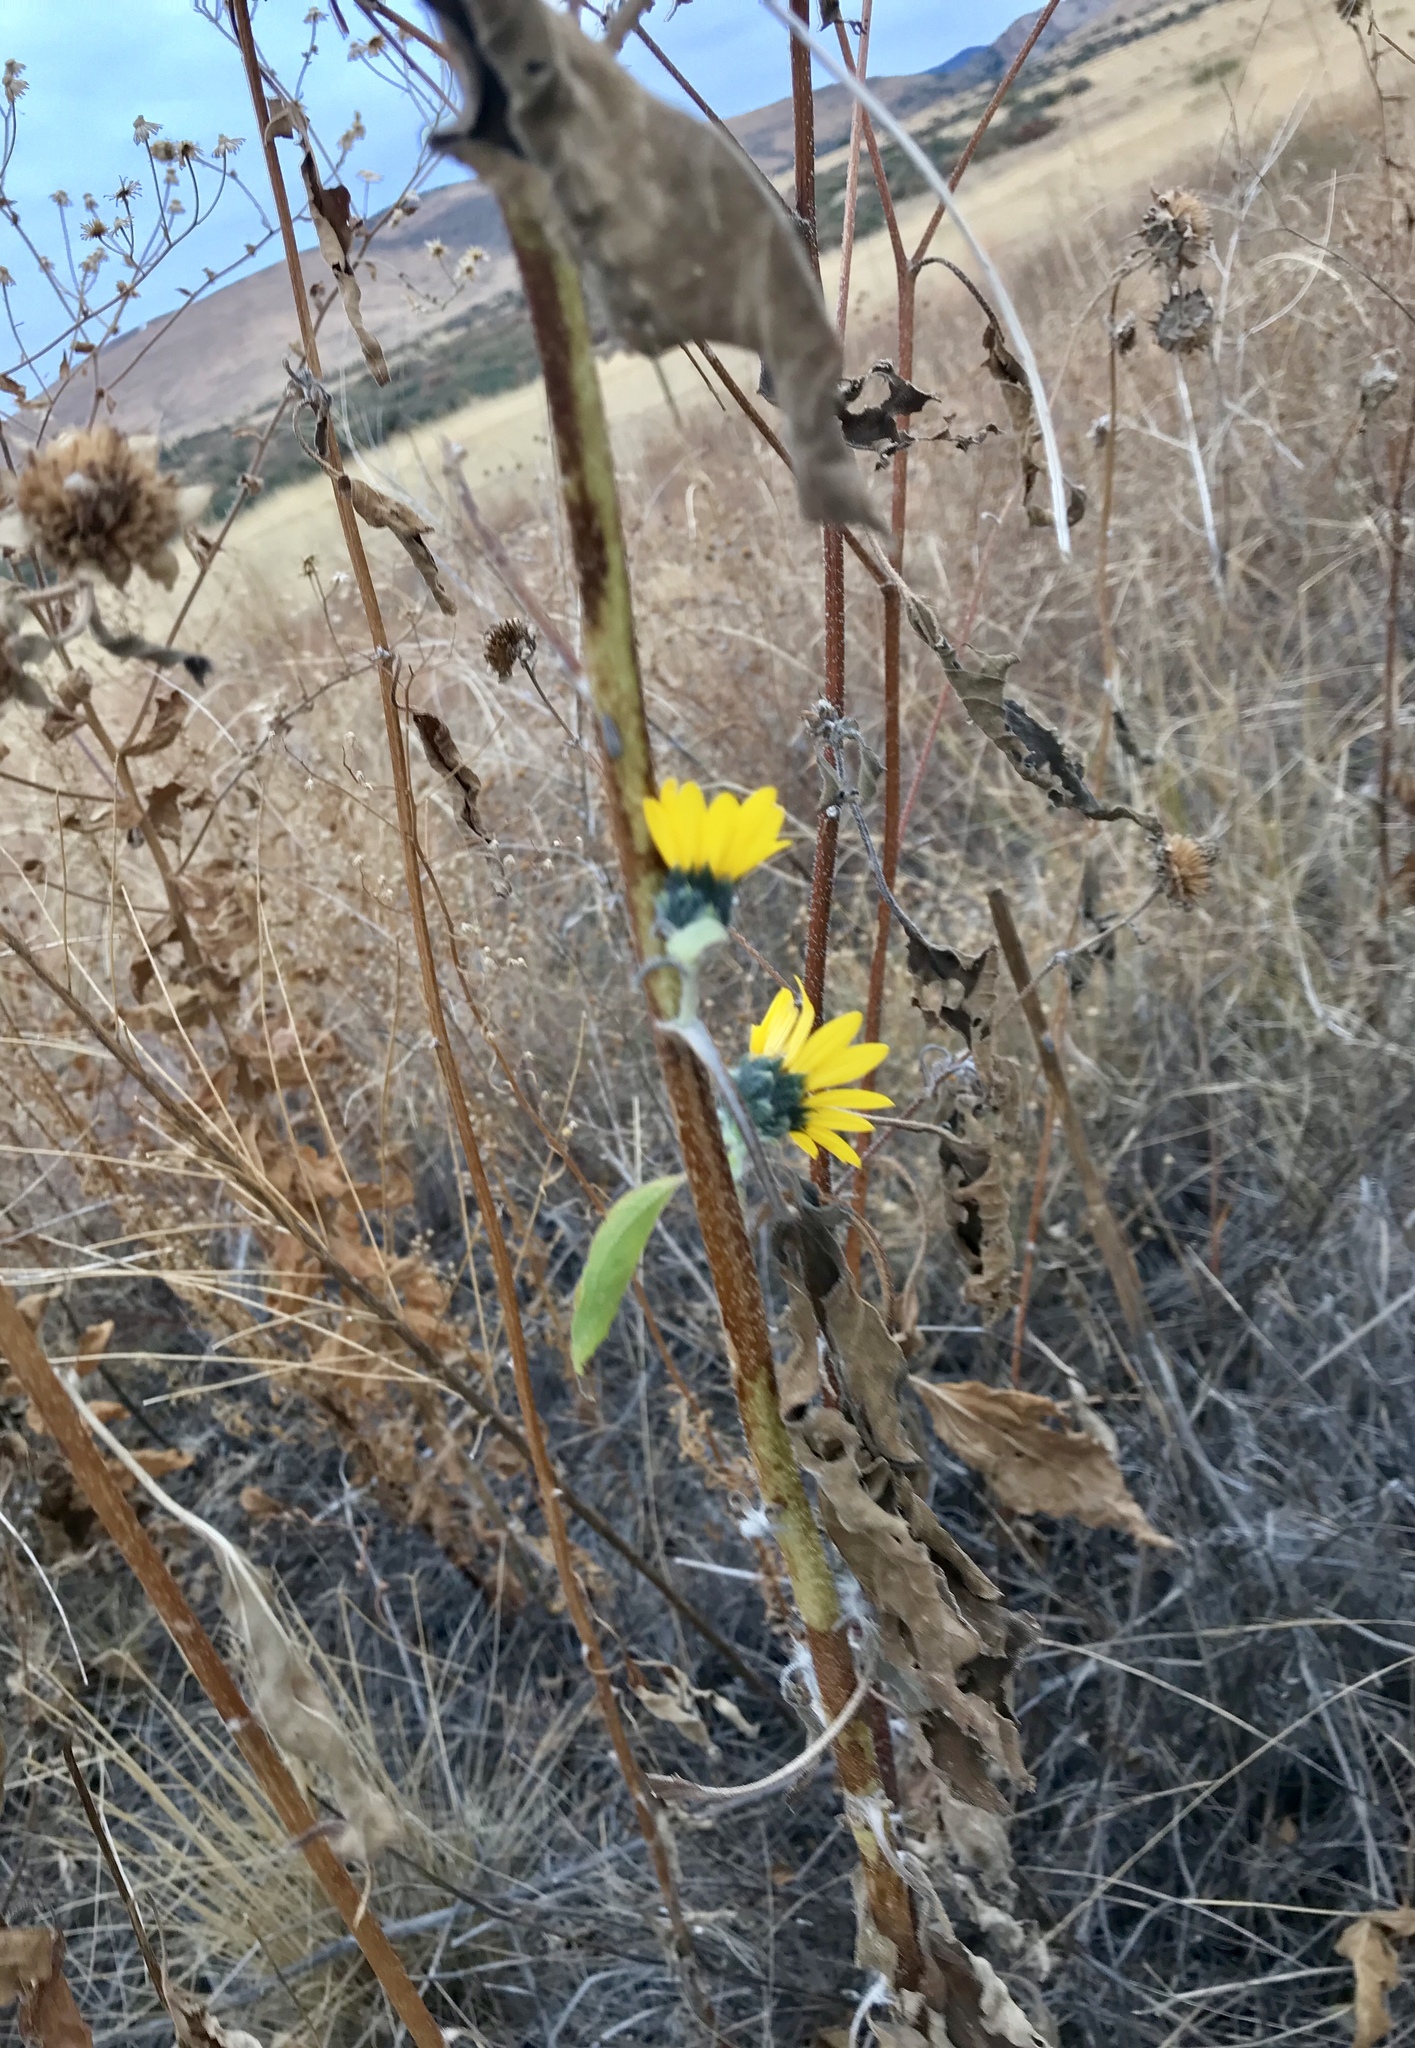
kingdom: Plantae
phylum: Tracheophyta
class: Magnoliopsida
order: Asterales
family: Asteraceae
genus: Helianthus
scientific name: Helianthus annuus
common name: Sunflower
